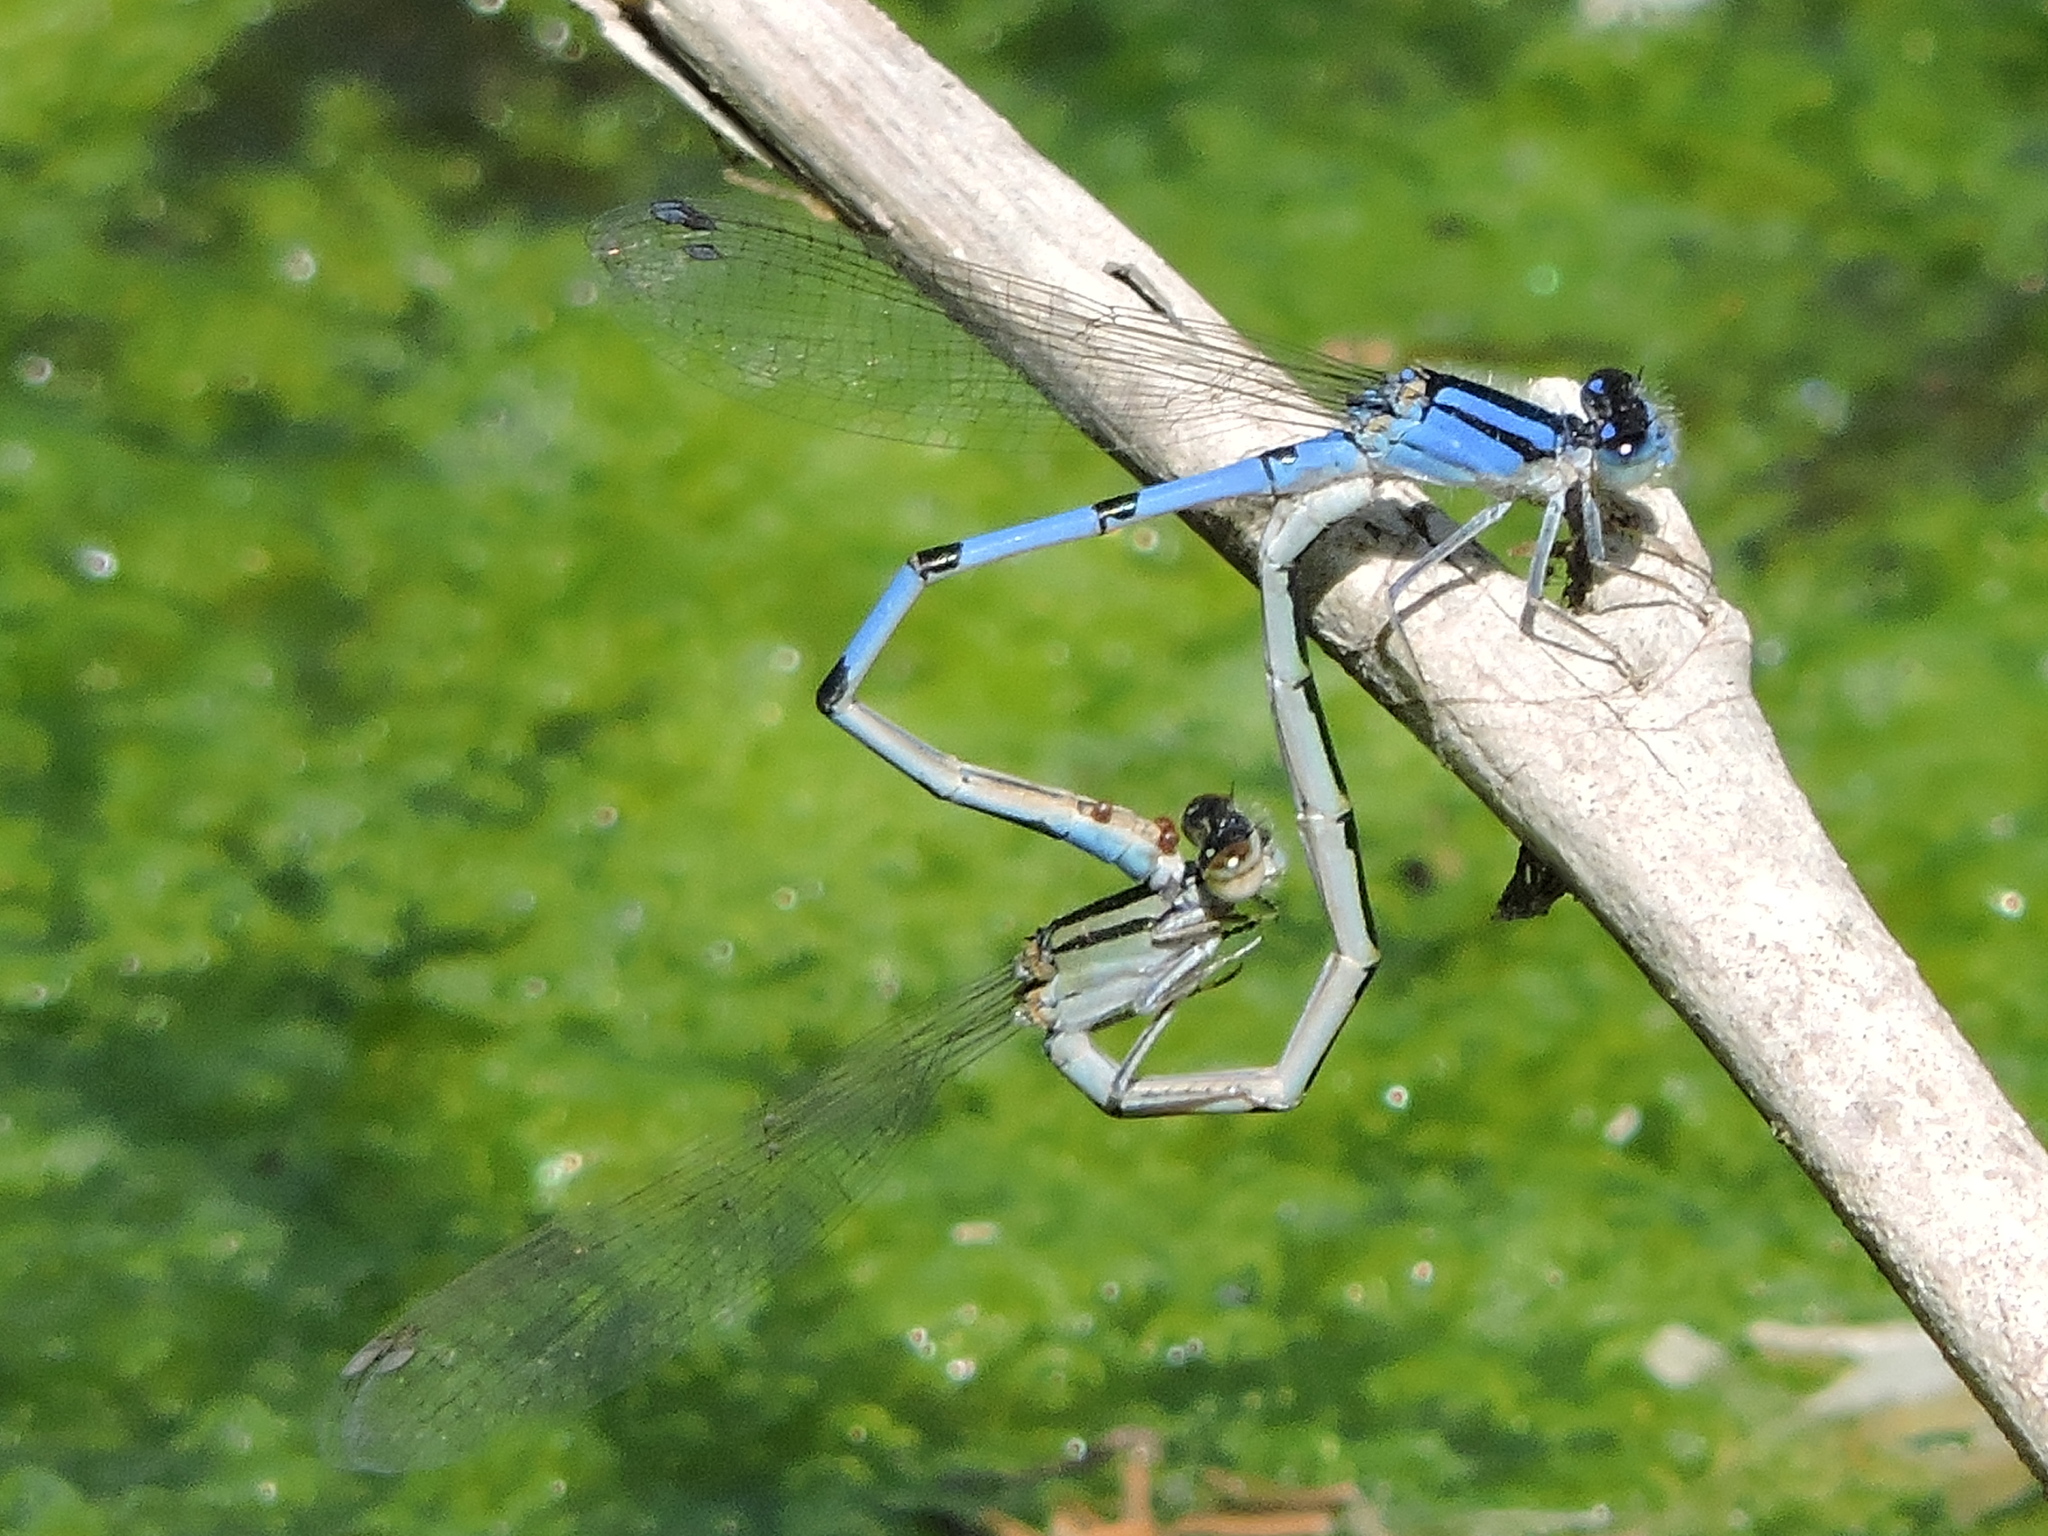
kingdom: Animalia
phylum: Arthropoda
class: Insecta
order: Odonata
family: Coenagrionidae
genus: Enallagma
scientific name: Enallagma civile
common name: Damselfly
